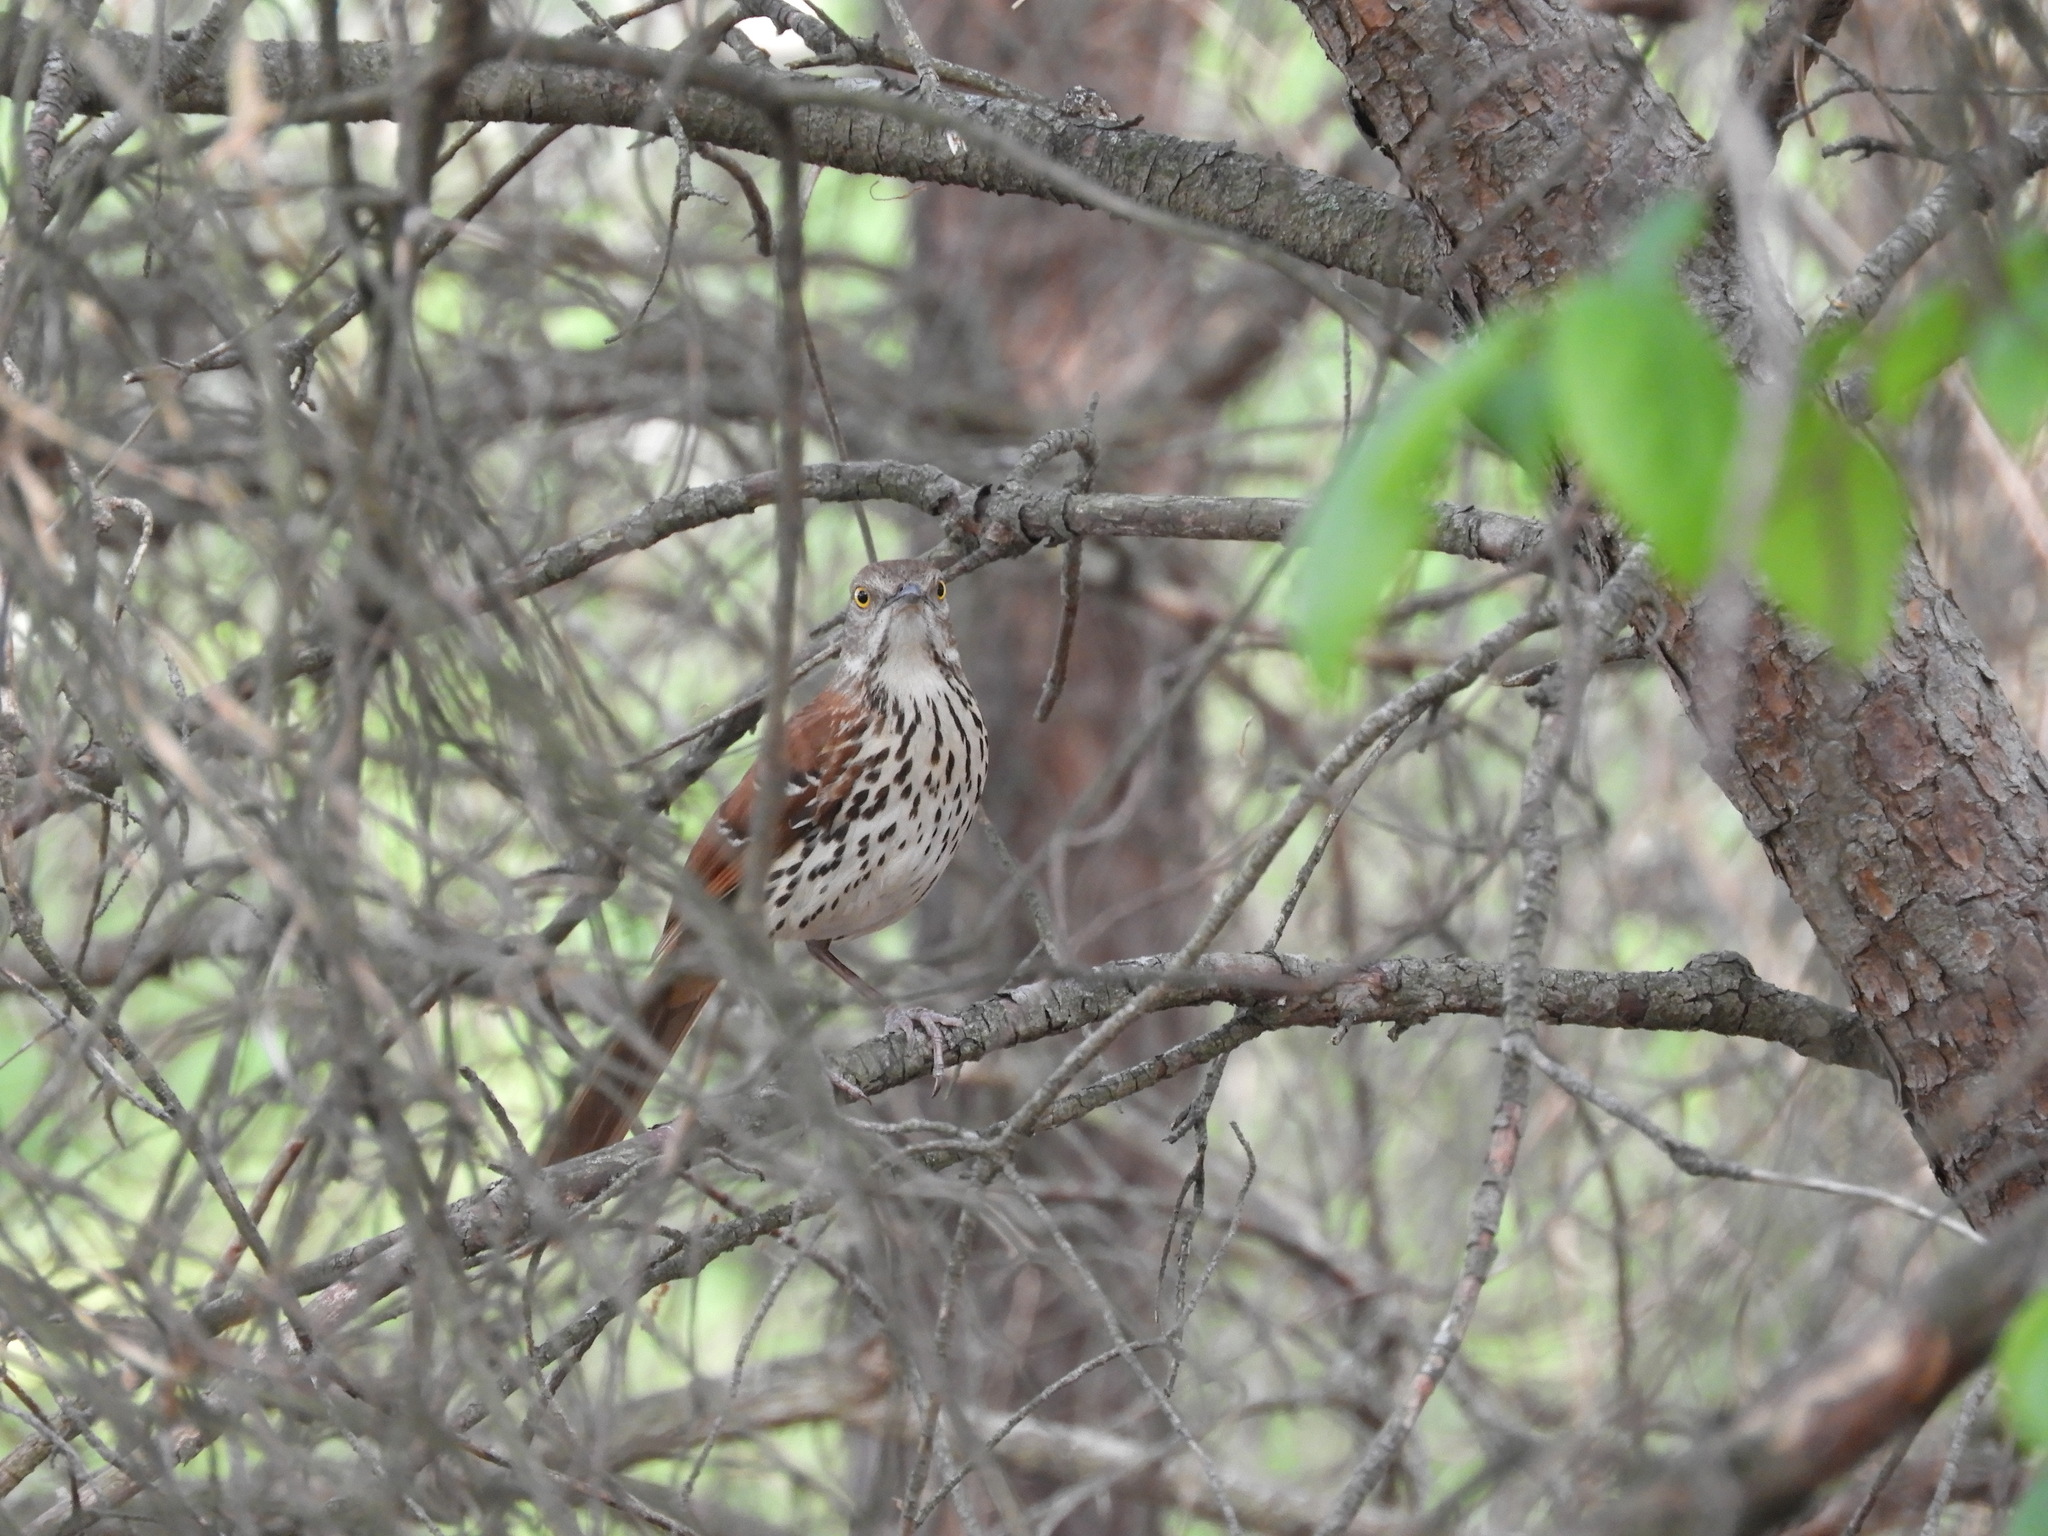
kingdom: Animalia
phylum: Chordata
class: Aves
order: Passeriformes
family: Mimidae
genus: Toxostoma
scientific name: Toxostoma rufum
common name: Brown thrasher
